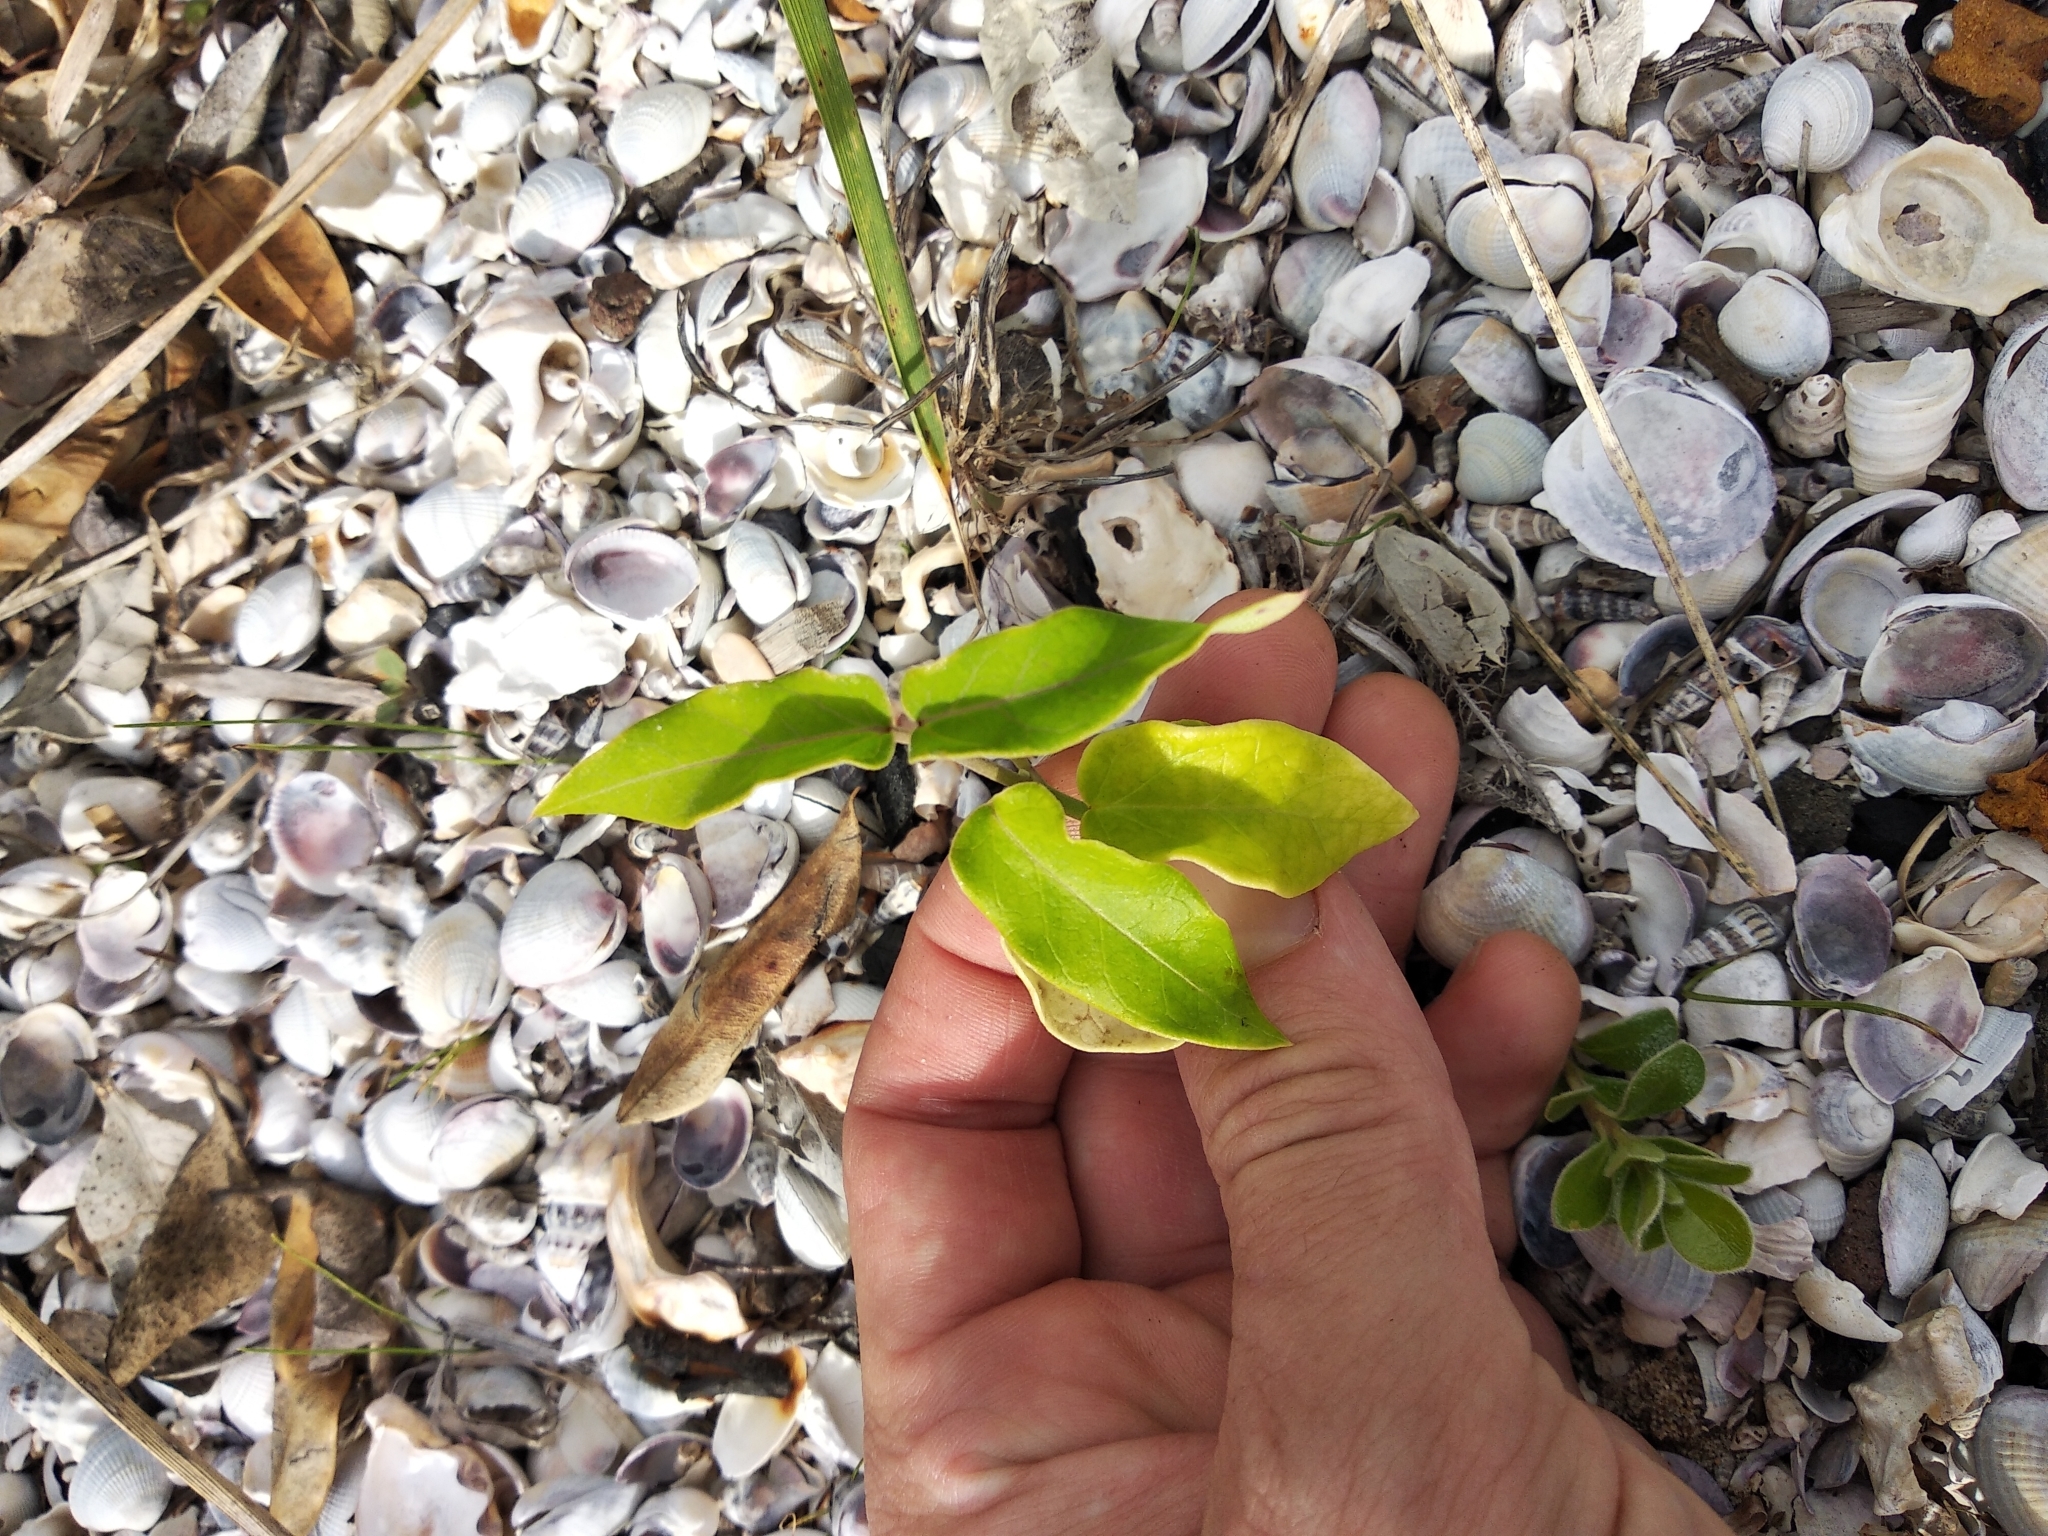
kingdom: Plantae
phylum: Tracheophyta
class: Magnoliopsida
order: Gentianales
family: Apocynaceae
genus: Araujia
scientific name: Araujia sericifera
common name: White bladderflower
